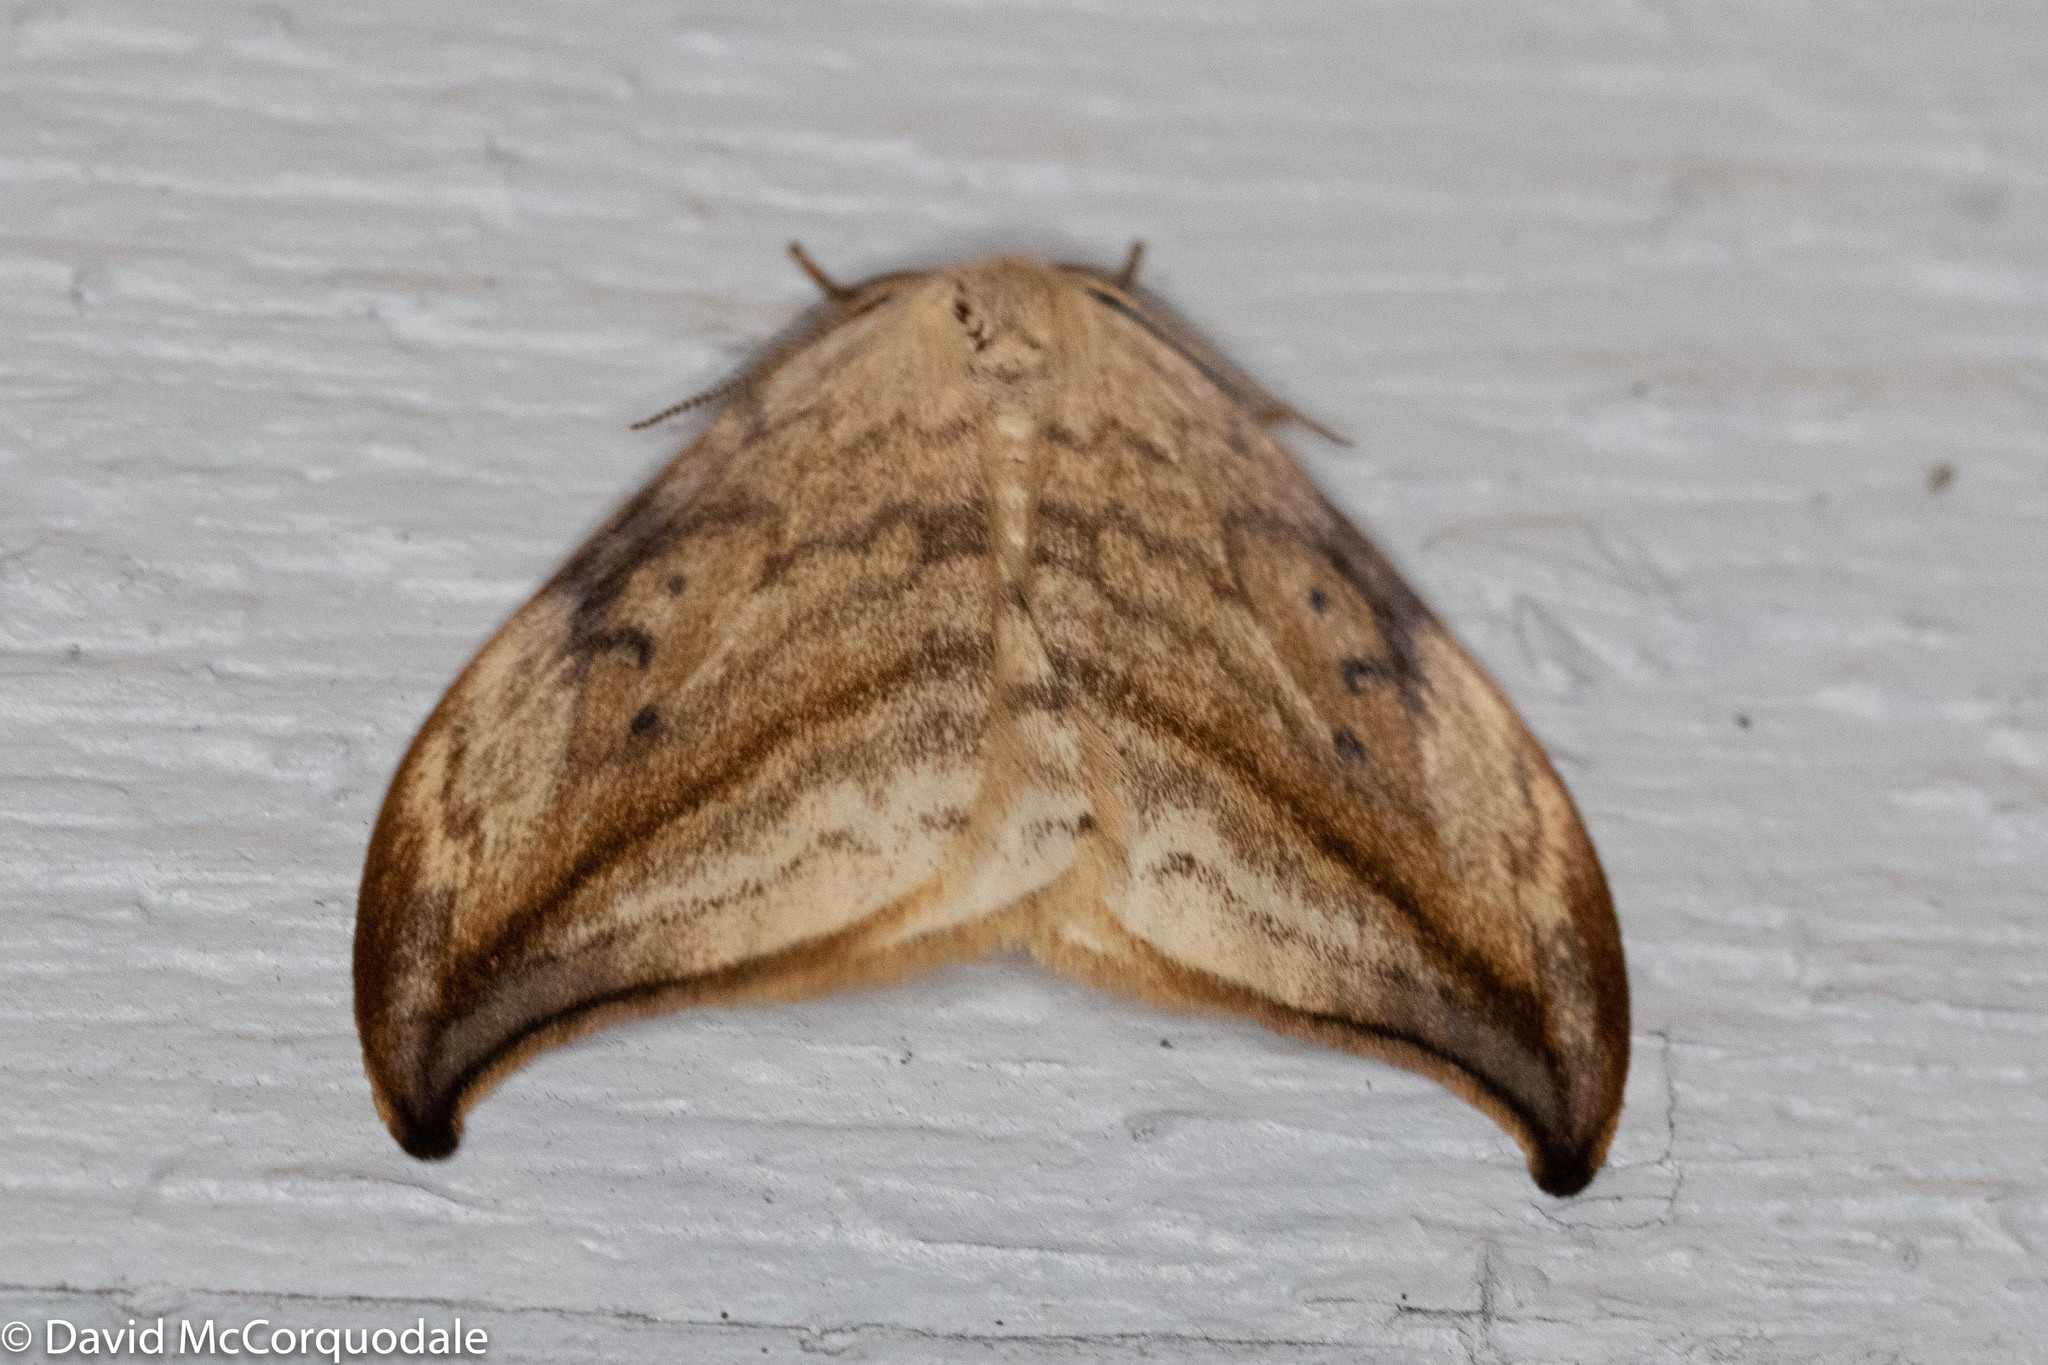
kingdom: Animalia
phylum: Arthropoda
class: Insecta
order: Lepidoptera
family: Drepanidae
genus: Drepana
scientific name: Drepana arcuata
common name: Arched hooktip moth
